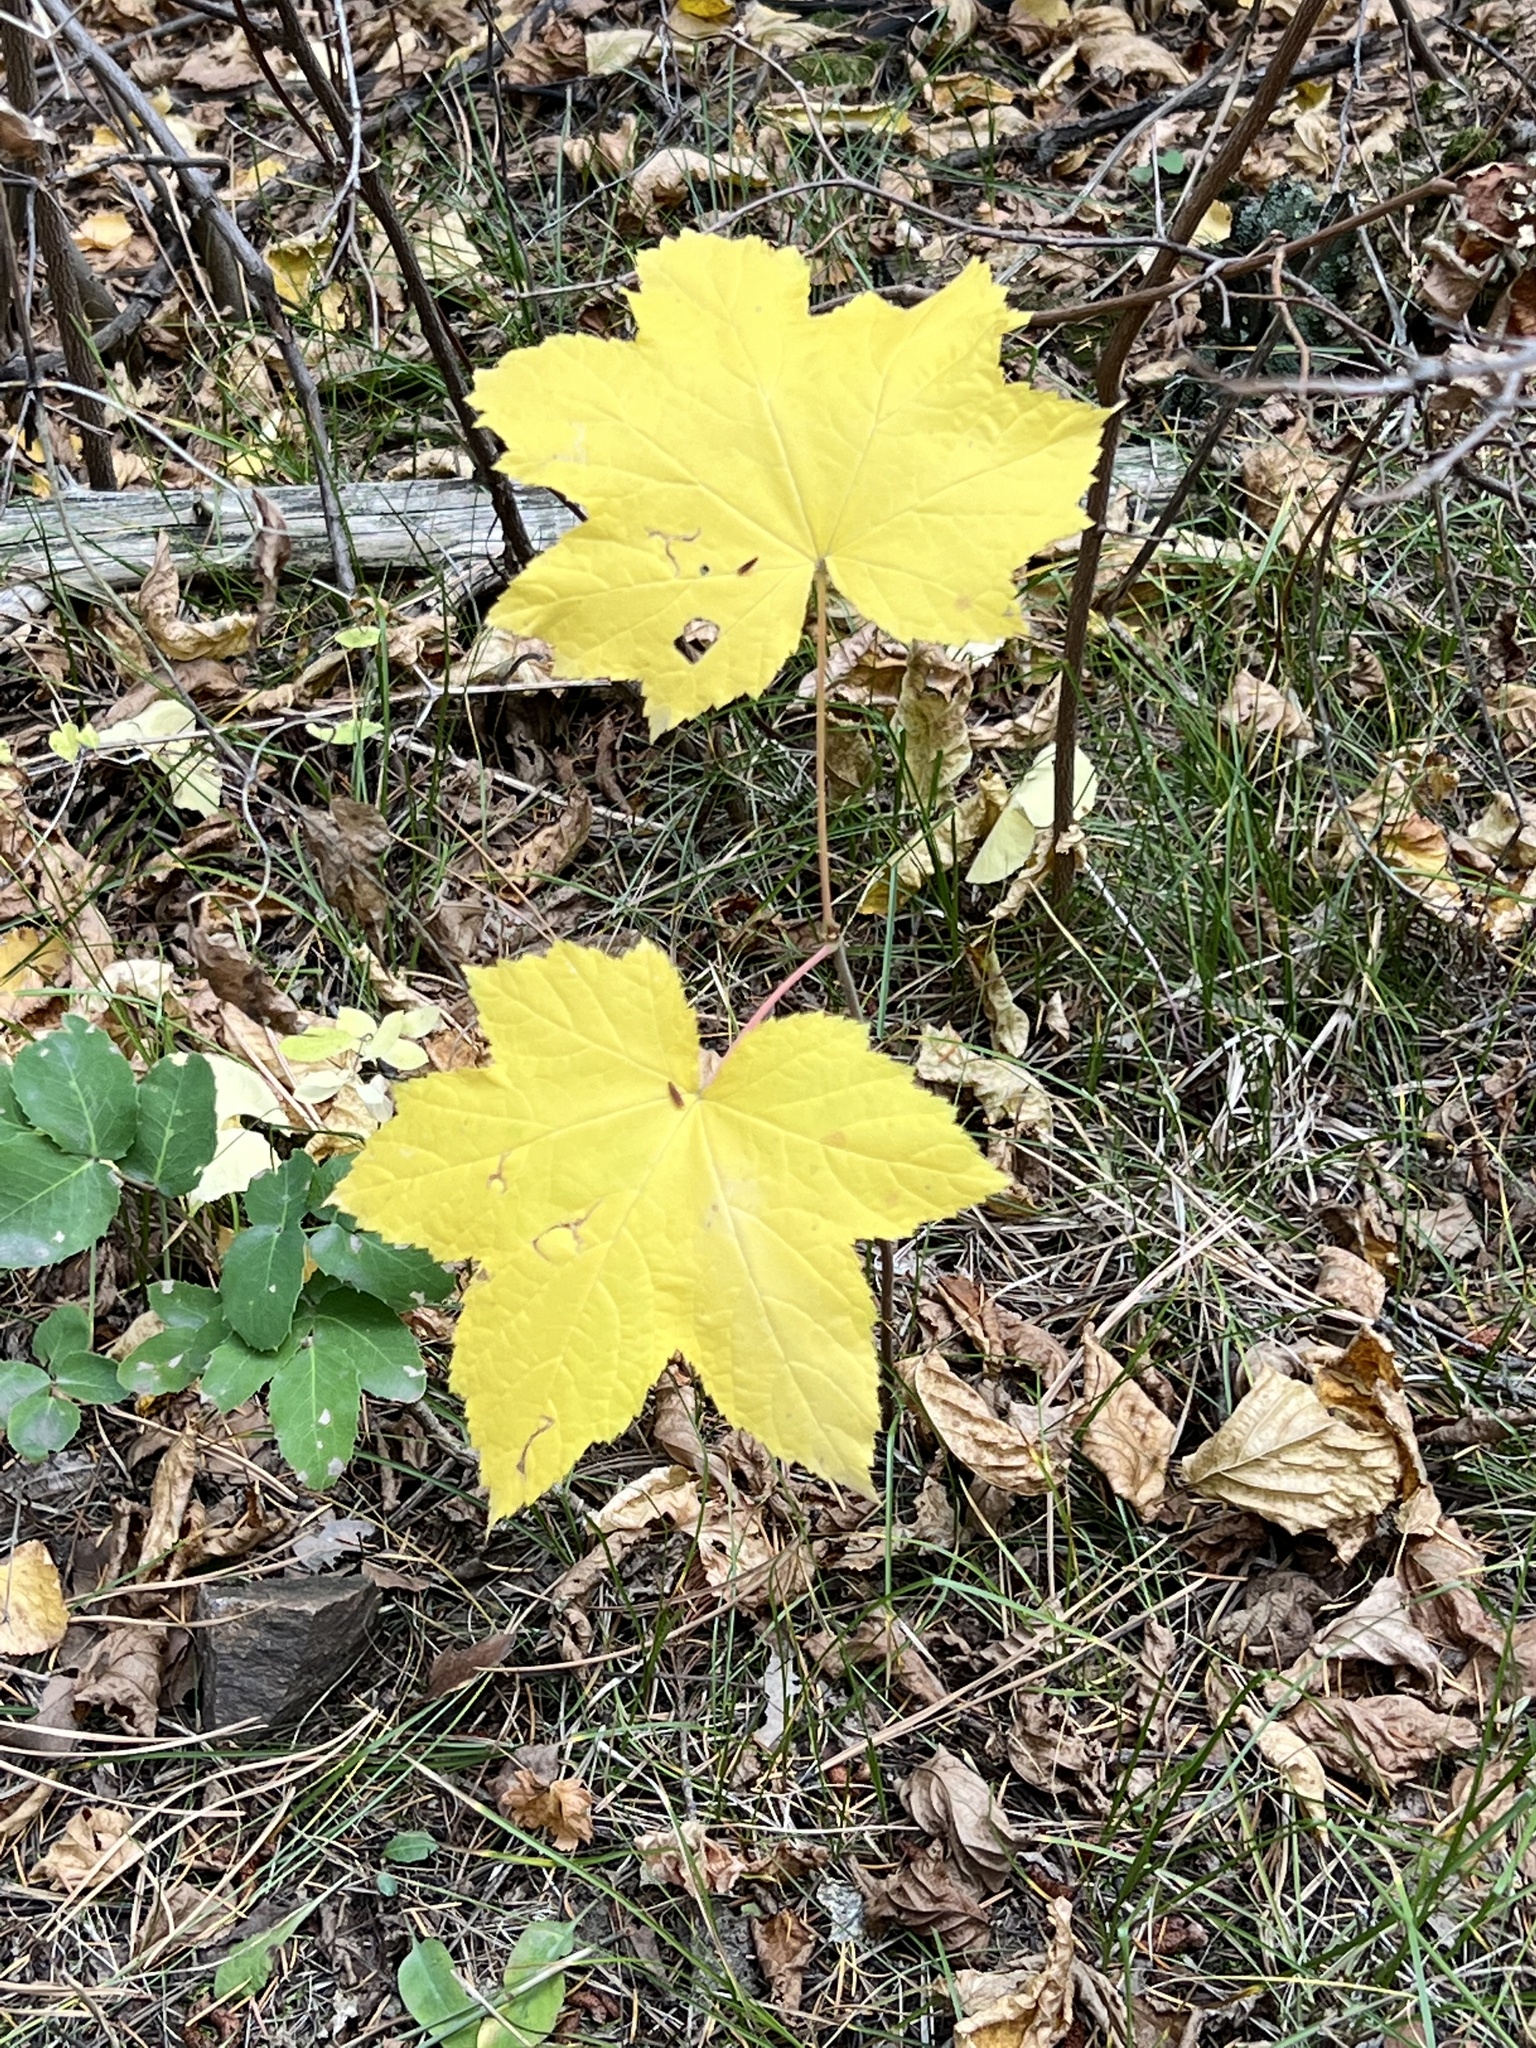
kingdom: Plantae
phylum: Tracheophyta
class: Magnoliopsida
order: Rosales
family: Rosaceae
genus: Rubus
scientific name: Rubus parviflorus
